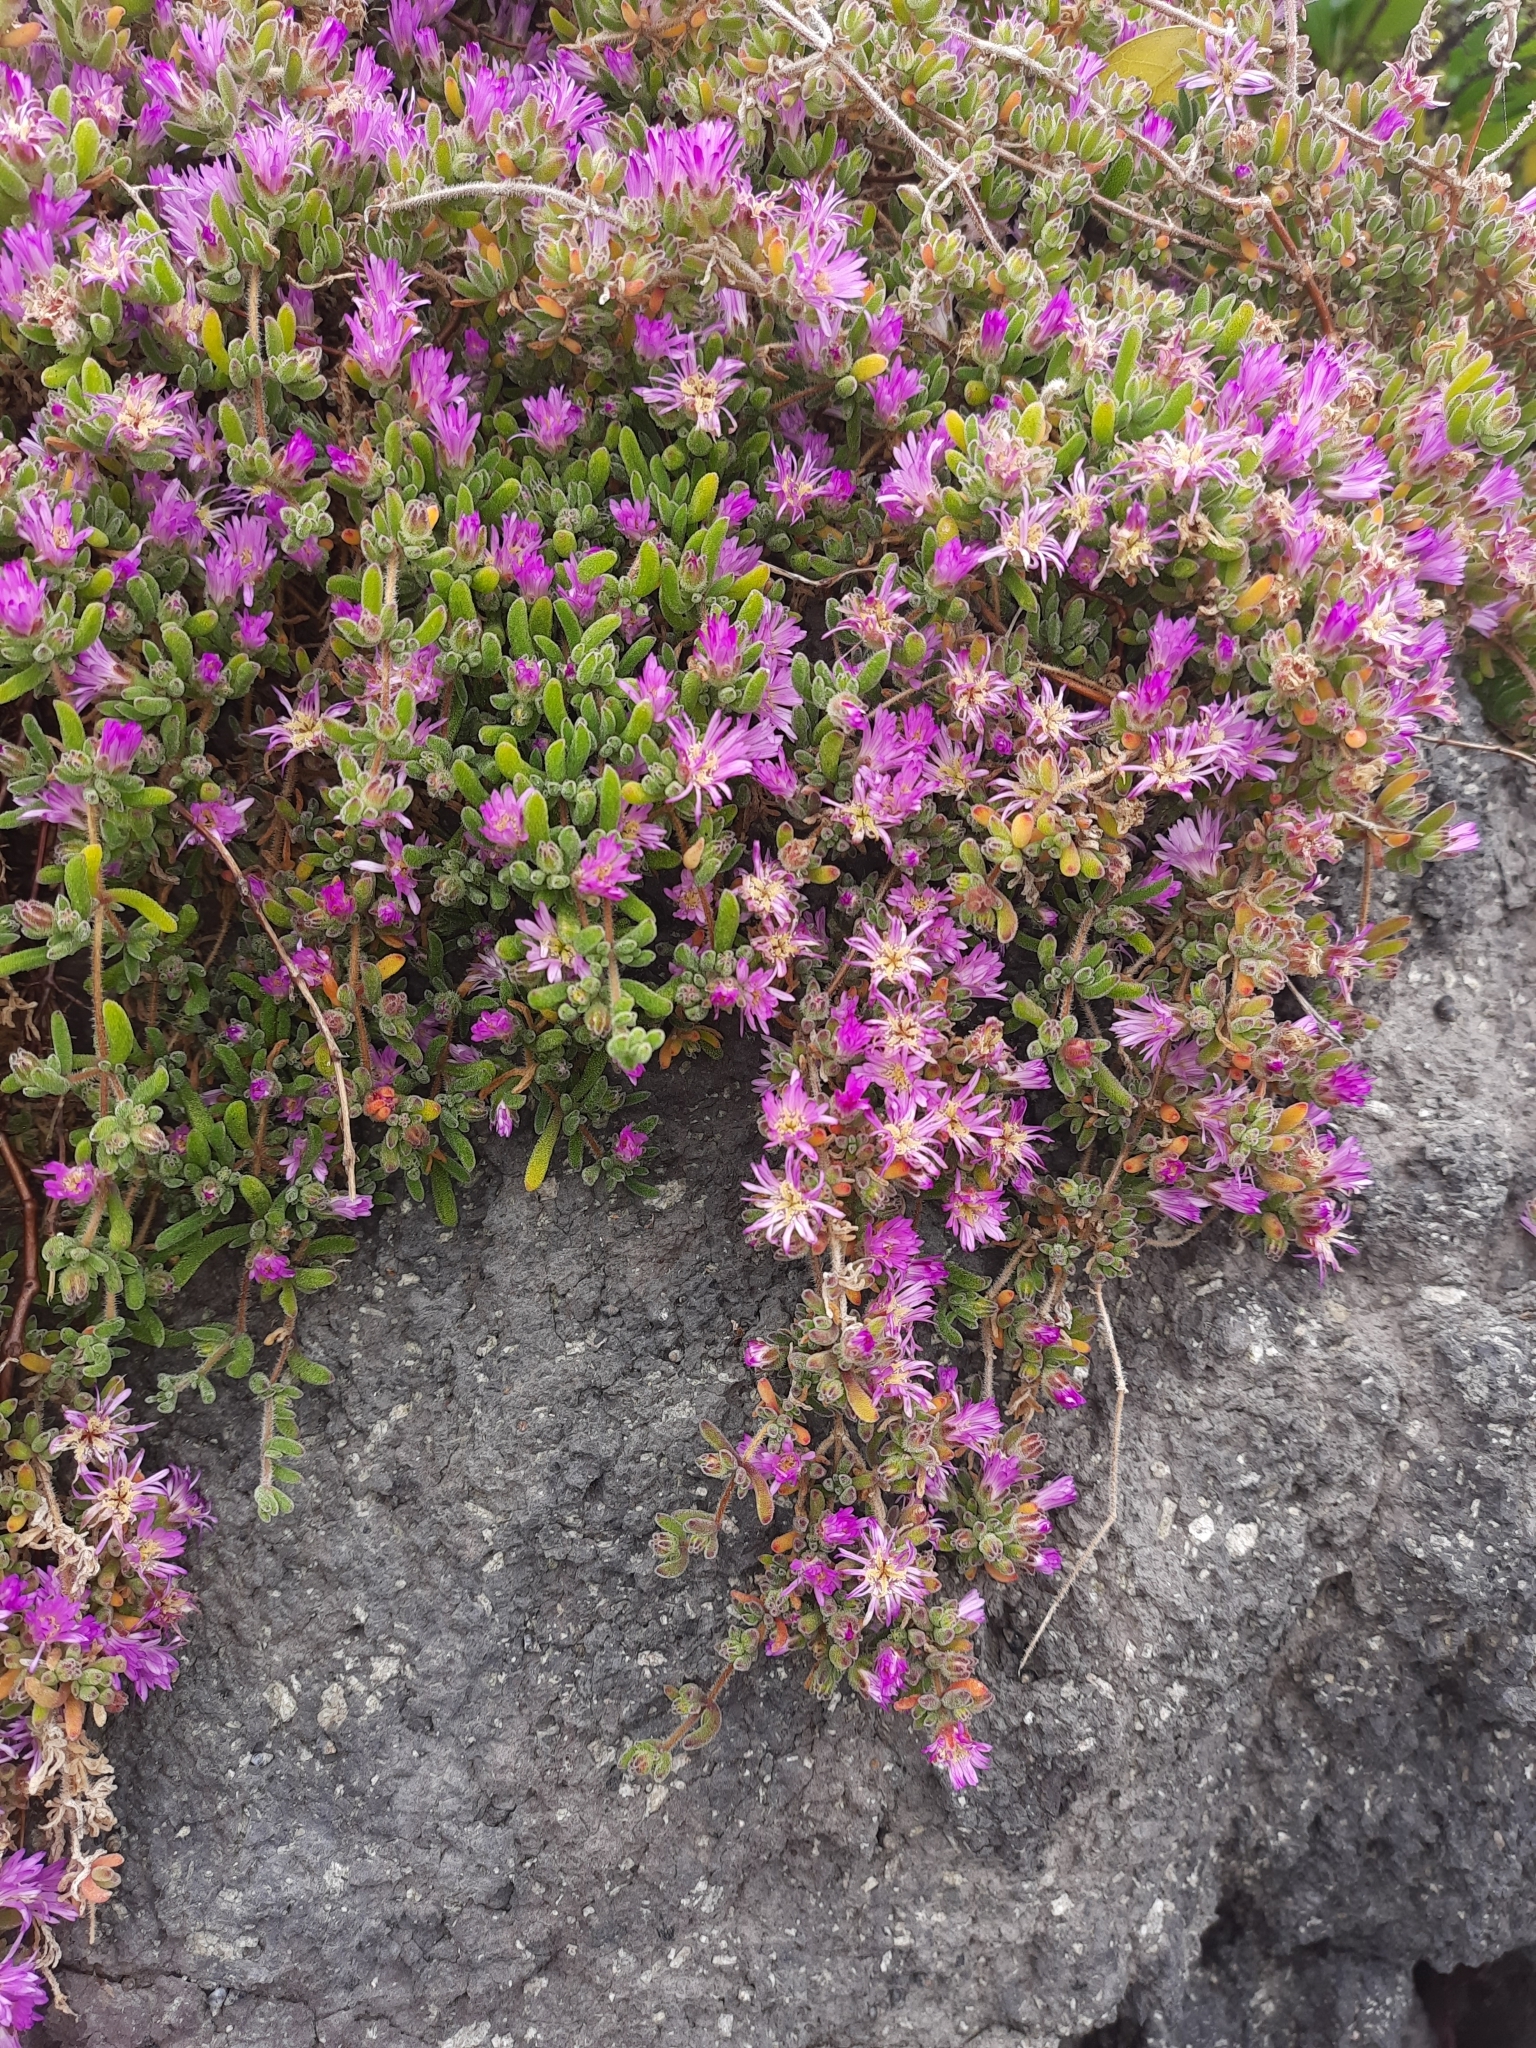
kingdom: Plantae
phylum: Tracheophyta
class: Magnoliopsida
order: Caryophyllales
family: Aizoaceae
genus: Drosanthemum
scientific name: Drosanthemum floribundum
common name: Pale dewplant
